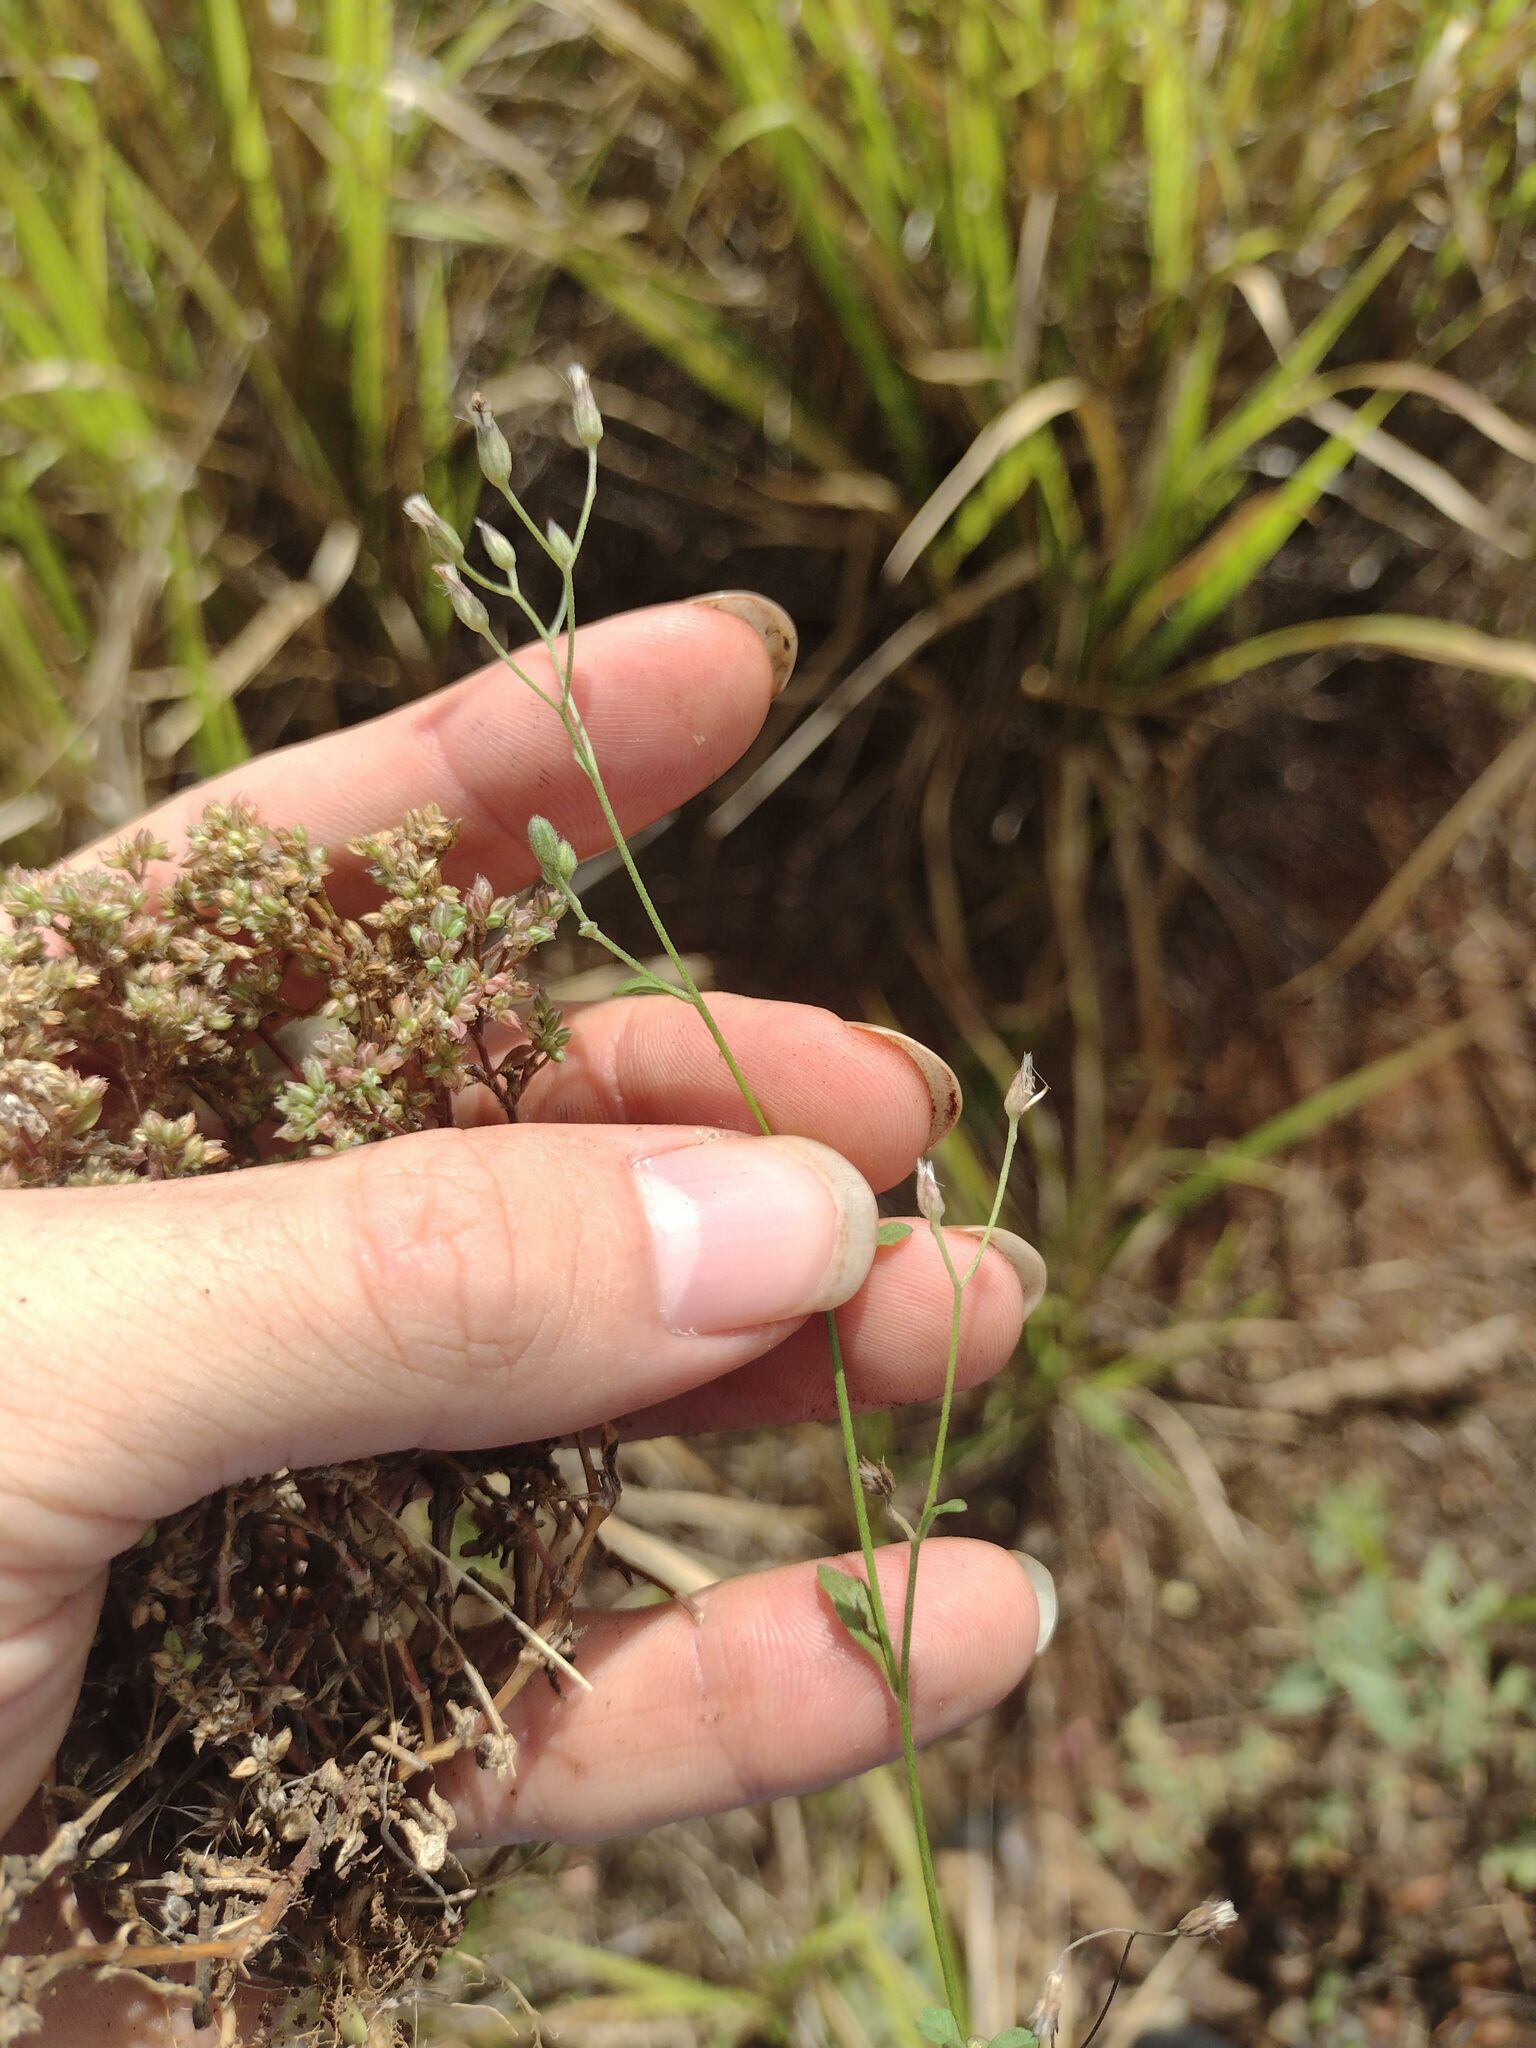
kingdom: Plantae
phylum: Tracheophyta
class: Magnoliopsida
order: Asterales
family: Asteraceae
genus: Cyanthillium
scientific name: Cyanthillium cinereum
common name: Little ironweed
